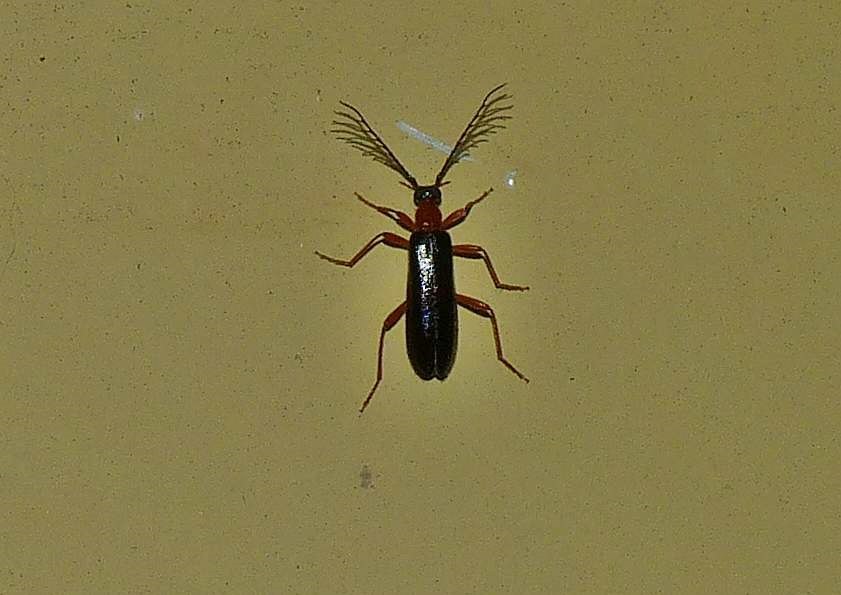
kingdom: Animalia
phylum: Arthropoda
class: Insecta
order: Coleoptera
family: Pyrochroidae
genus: Dendroides
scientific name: Dendroides canadensis
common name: Canada fire-colored beetle
